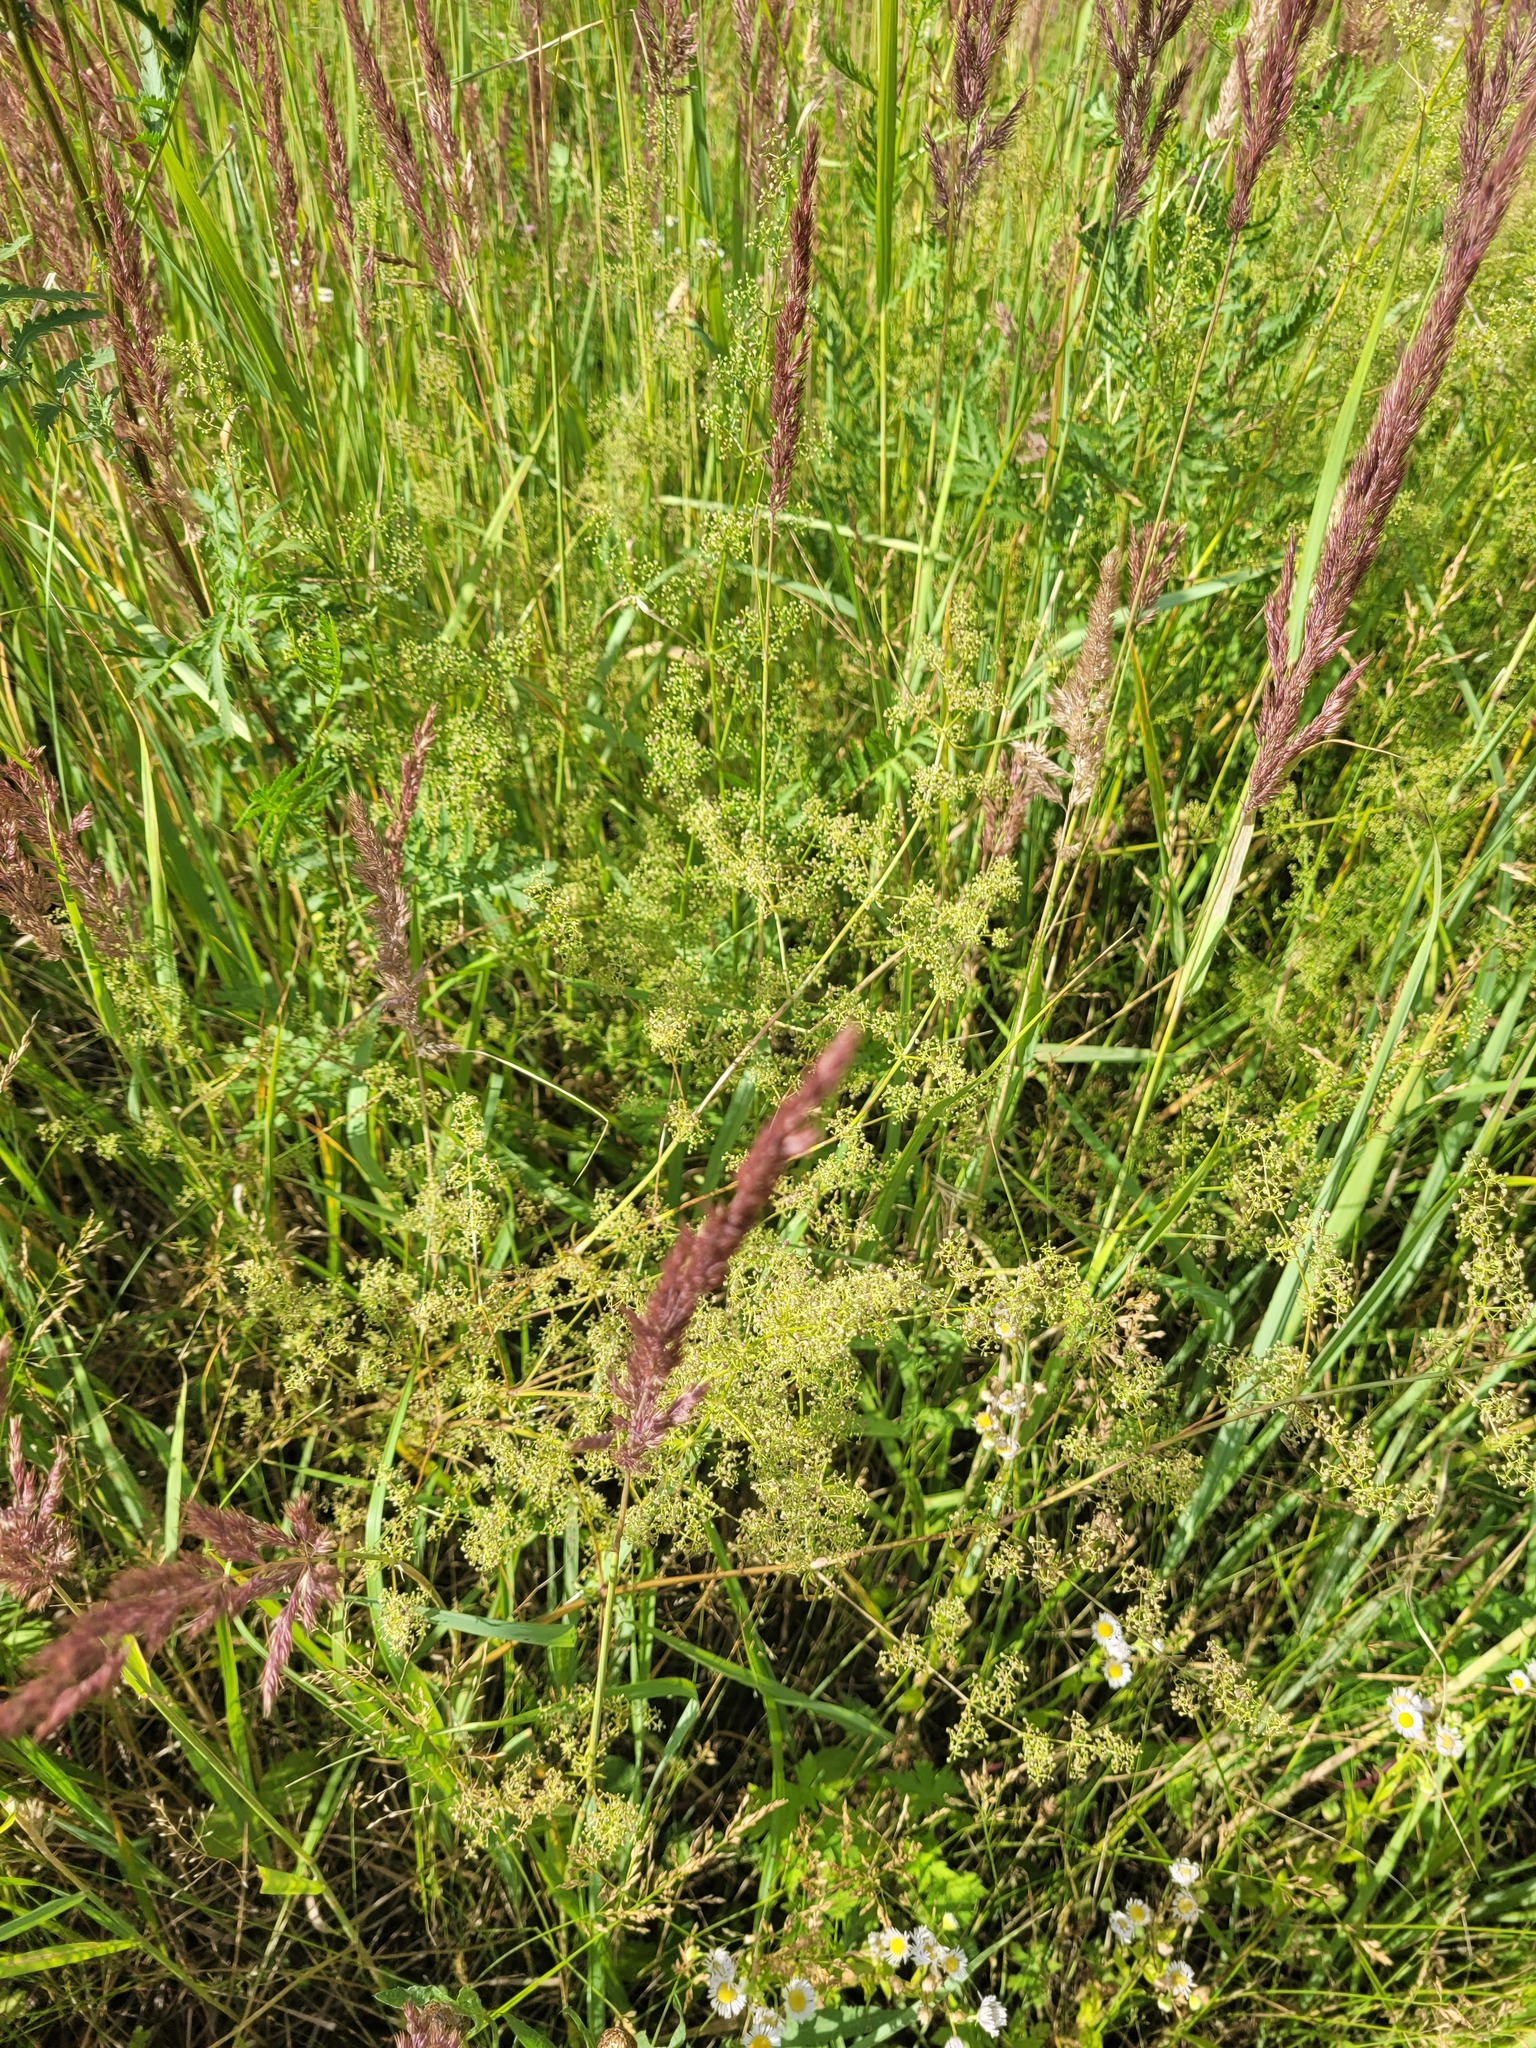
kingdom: Plantae
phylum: Tracheophyta
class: Magnoliopsida
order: Gentianales
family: Rubiaceae
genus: Galium
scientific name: Galium mollugo
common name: Hedge bedstraw
